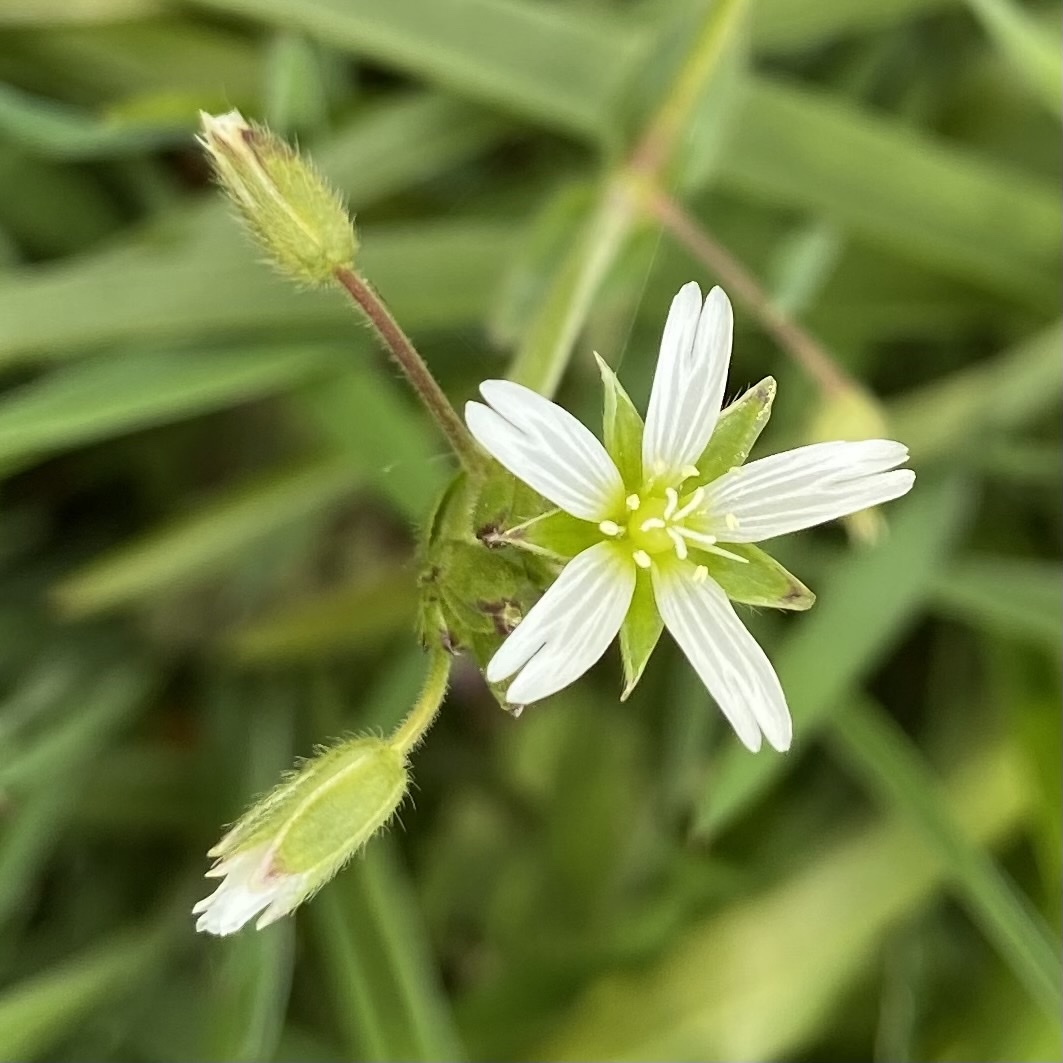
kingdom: Plantae
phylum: Tracheophyta
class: Magnoliopsida
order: Caryophyllales
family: Caryophyllaceae
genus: Cerastium
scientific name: Cerastium fontanum
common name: Common mouse-ear
